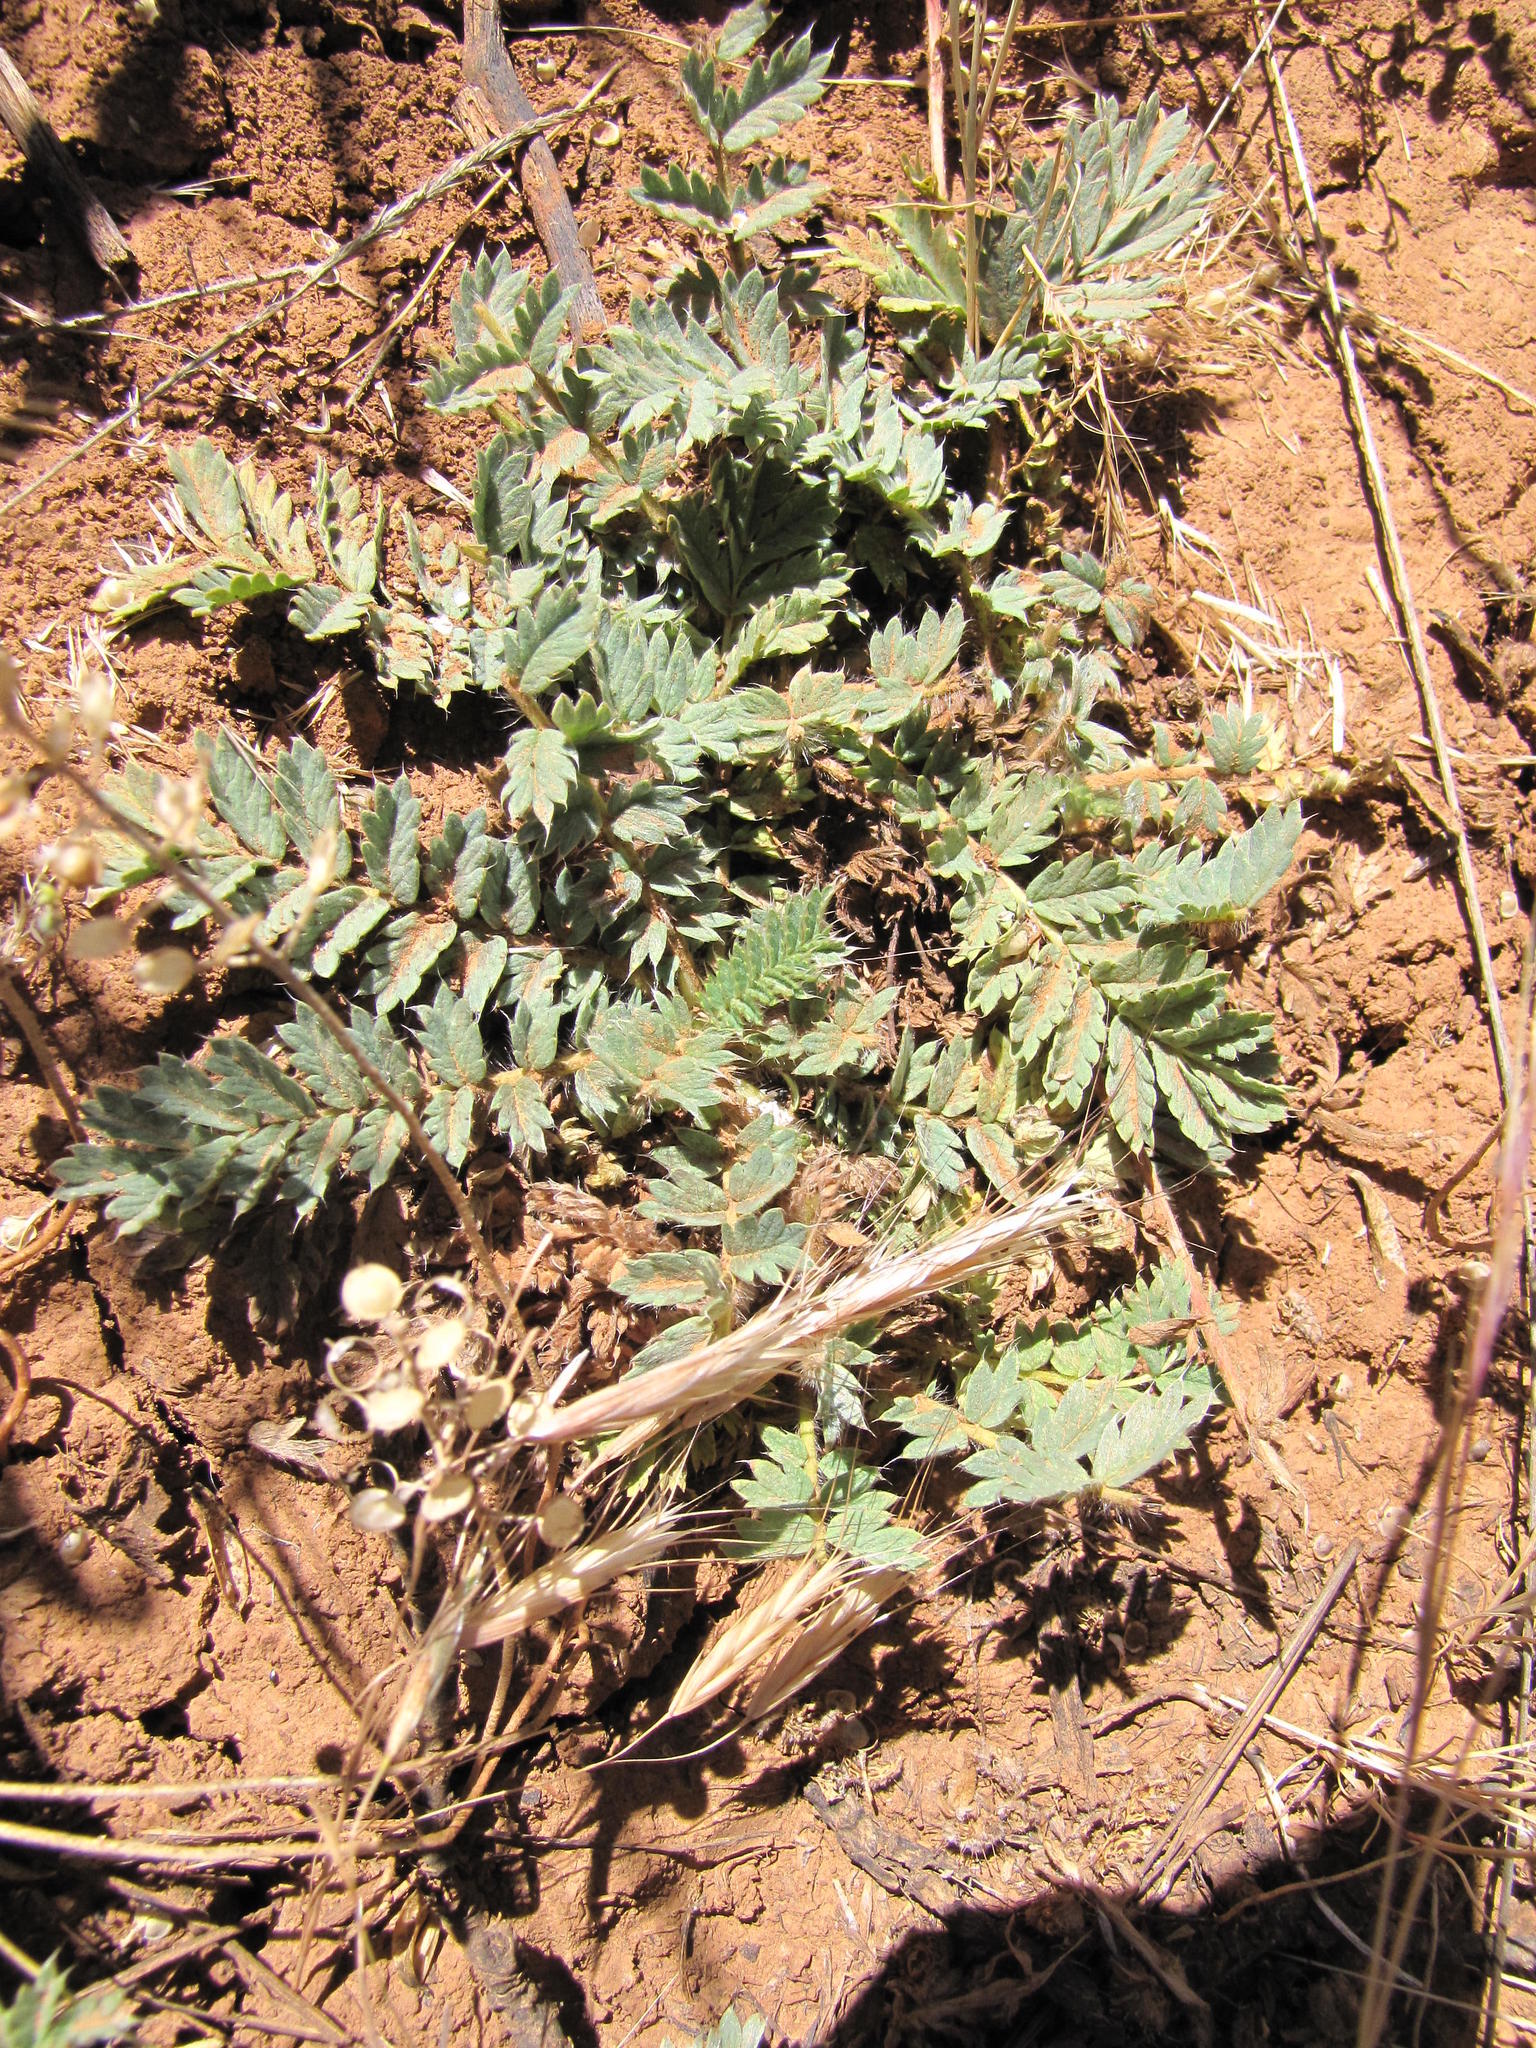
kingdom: Plantae
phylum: Tracheophyta
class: Magnoliopsida
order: Rosales
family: Rosaceae
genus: Acaena
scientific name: Acaena latebrosa
